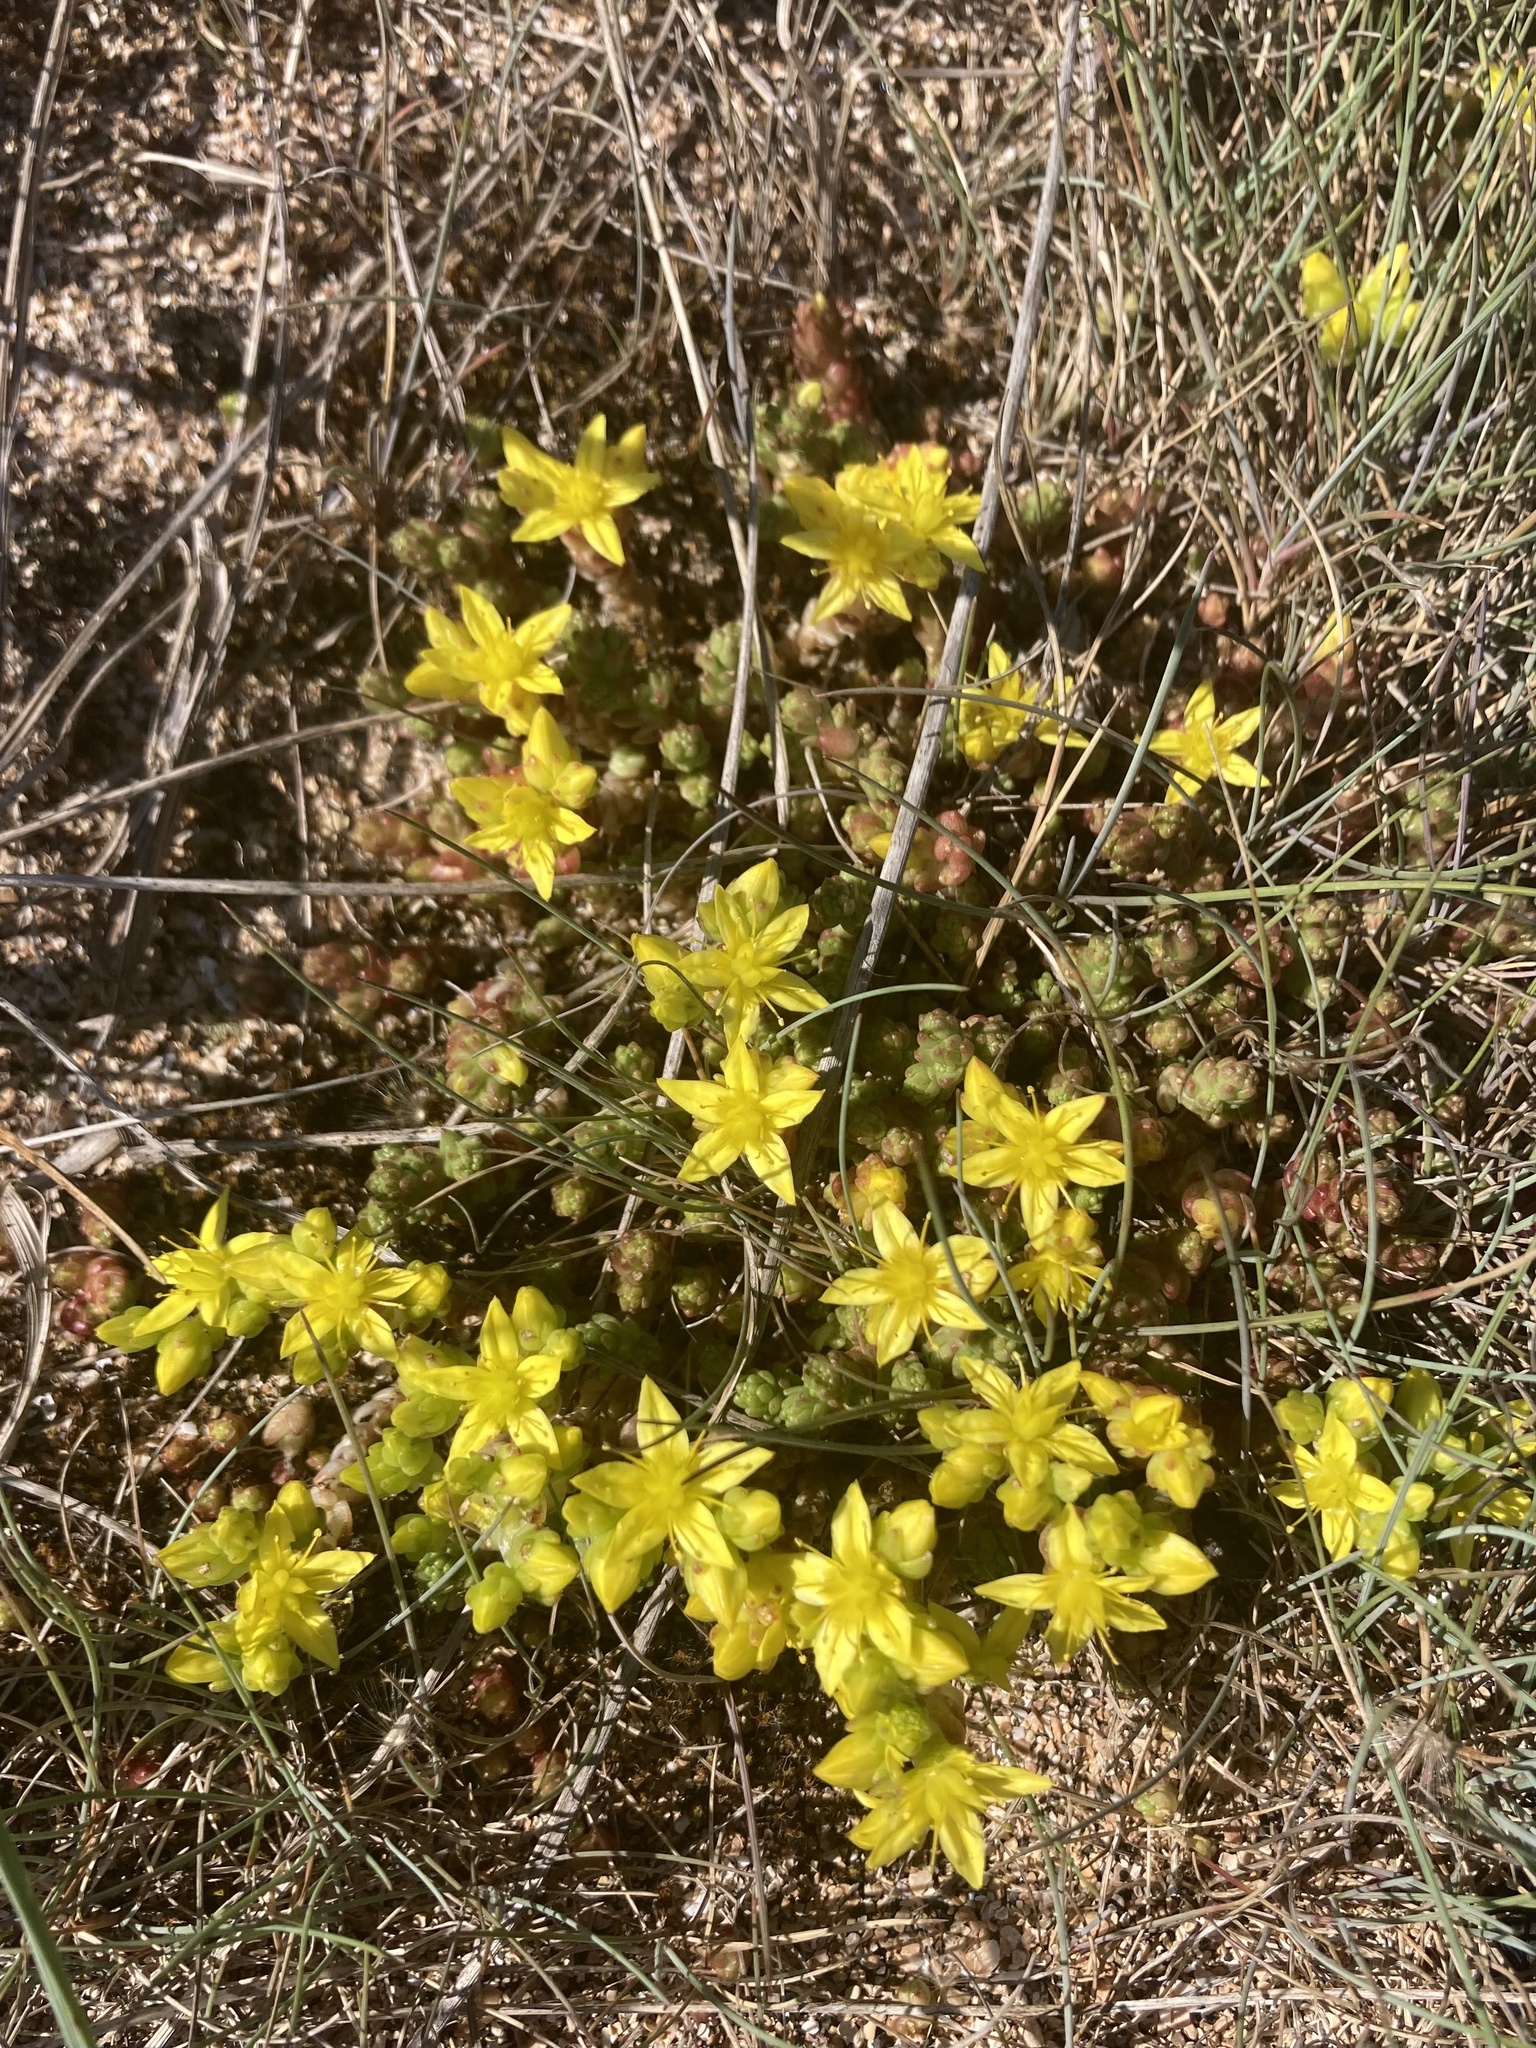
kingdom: Plantae
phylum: Tracheophyta
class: Magnoliopsida
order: Saxifragales
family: Crassulaceae
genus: Sedum
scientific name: Sedum acre
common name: Biting stonecrop
